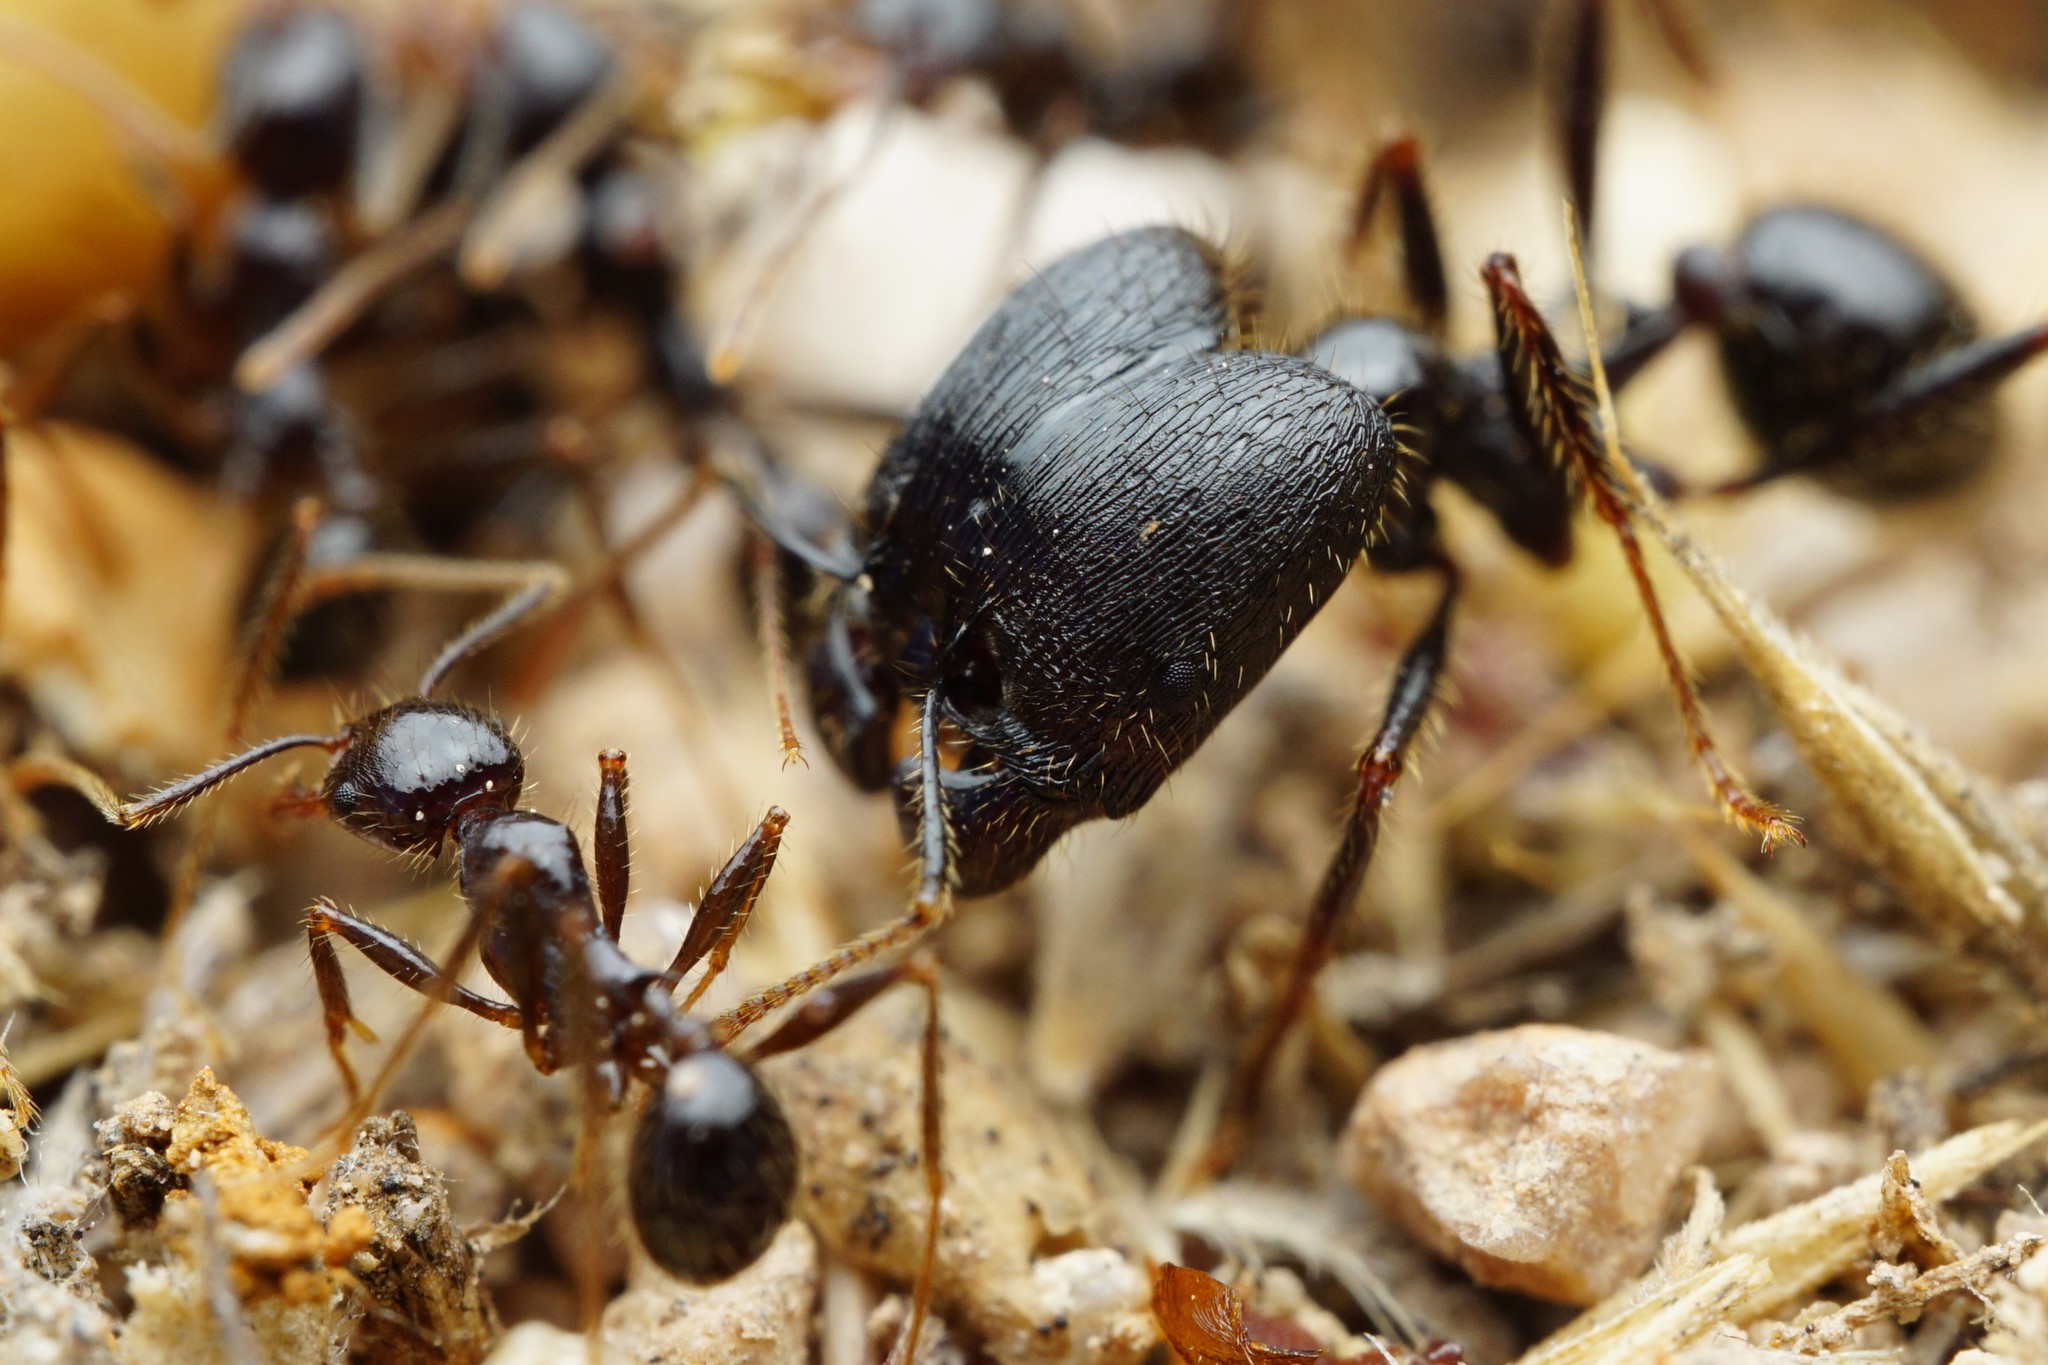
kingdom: Animalia
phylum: Arthropoda
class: Insecta
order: Hymenoptera
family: Formicidae
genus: Pheidole
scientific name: Pheidole rhea
